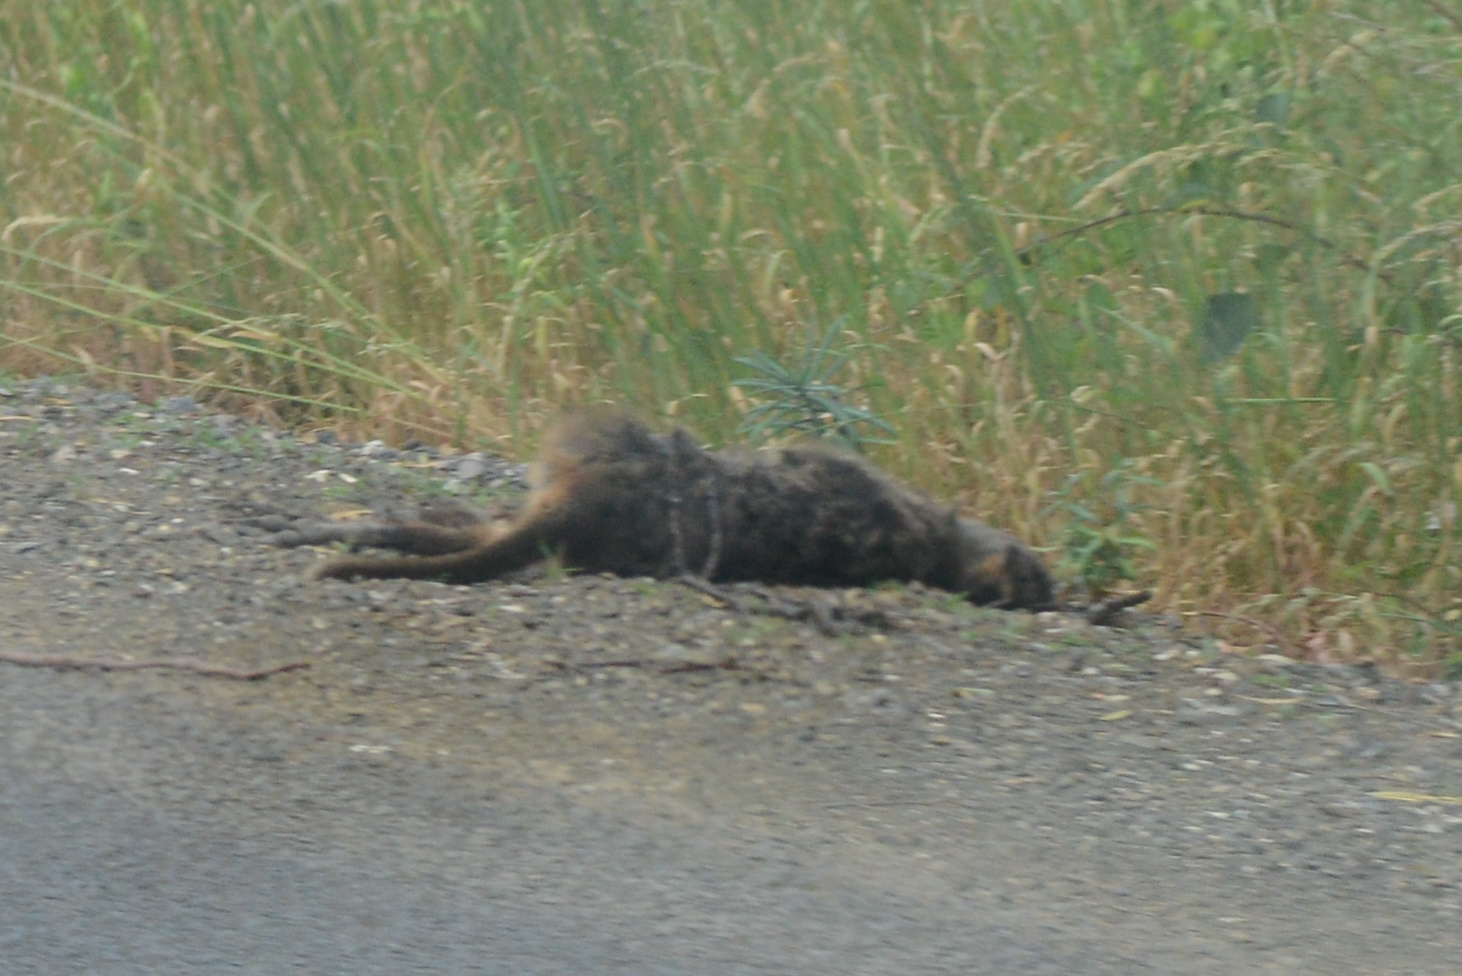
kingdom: Animalia
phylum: Chordata
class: Mammalia
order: Diprotodontia
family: Macropodidae
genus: Thylogale
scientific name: Thylogale billardierii
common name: Tasmanian pademelon
